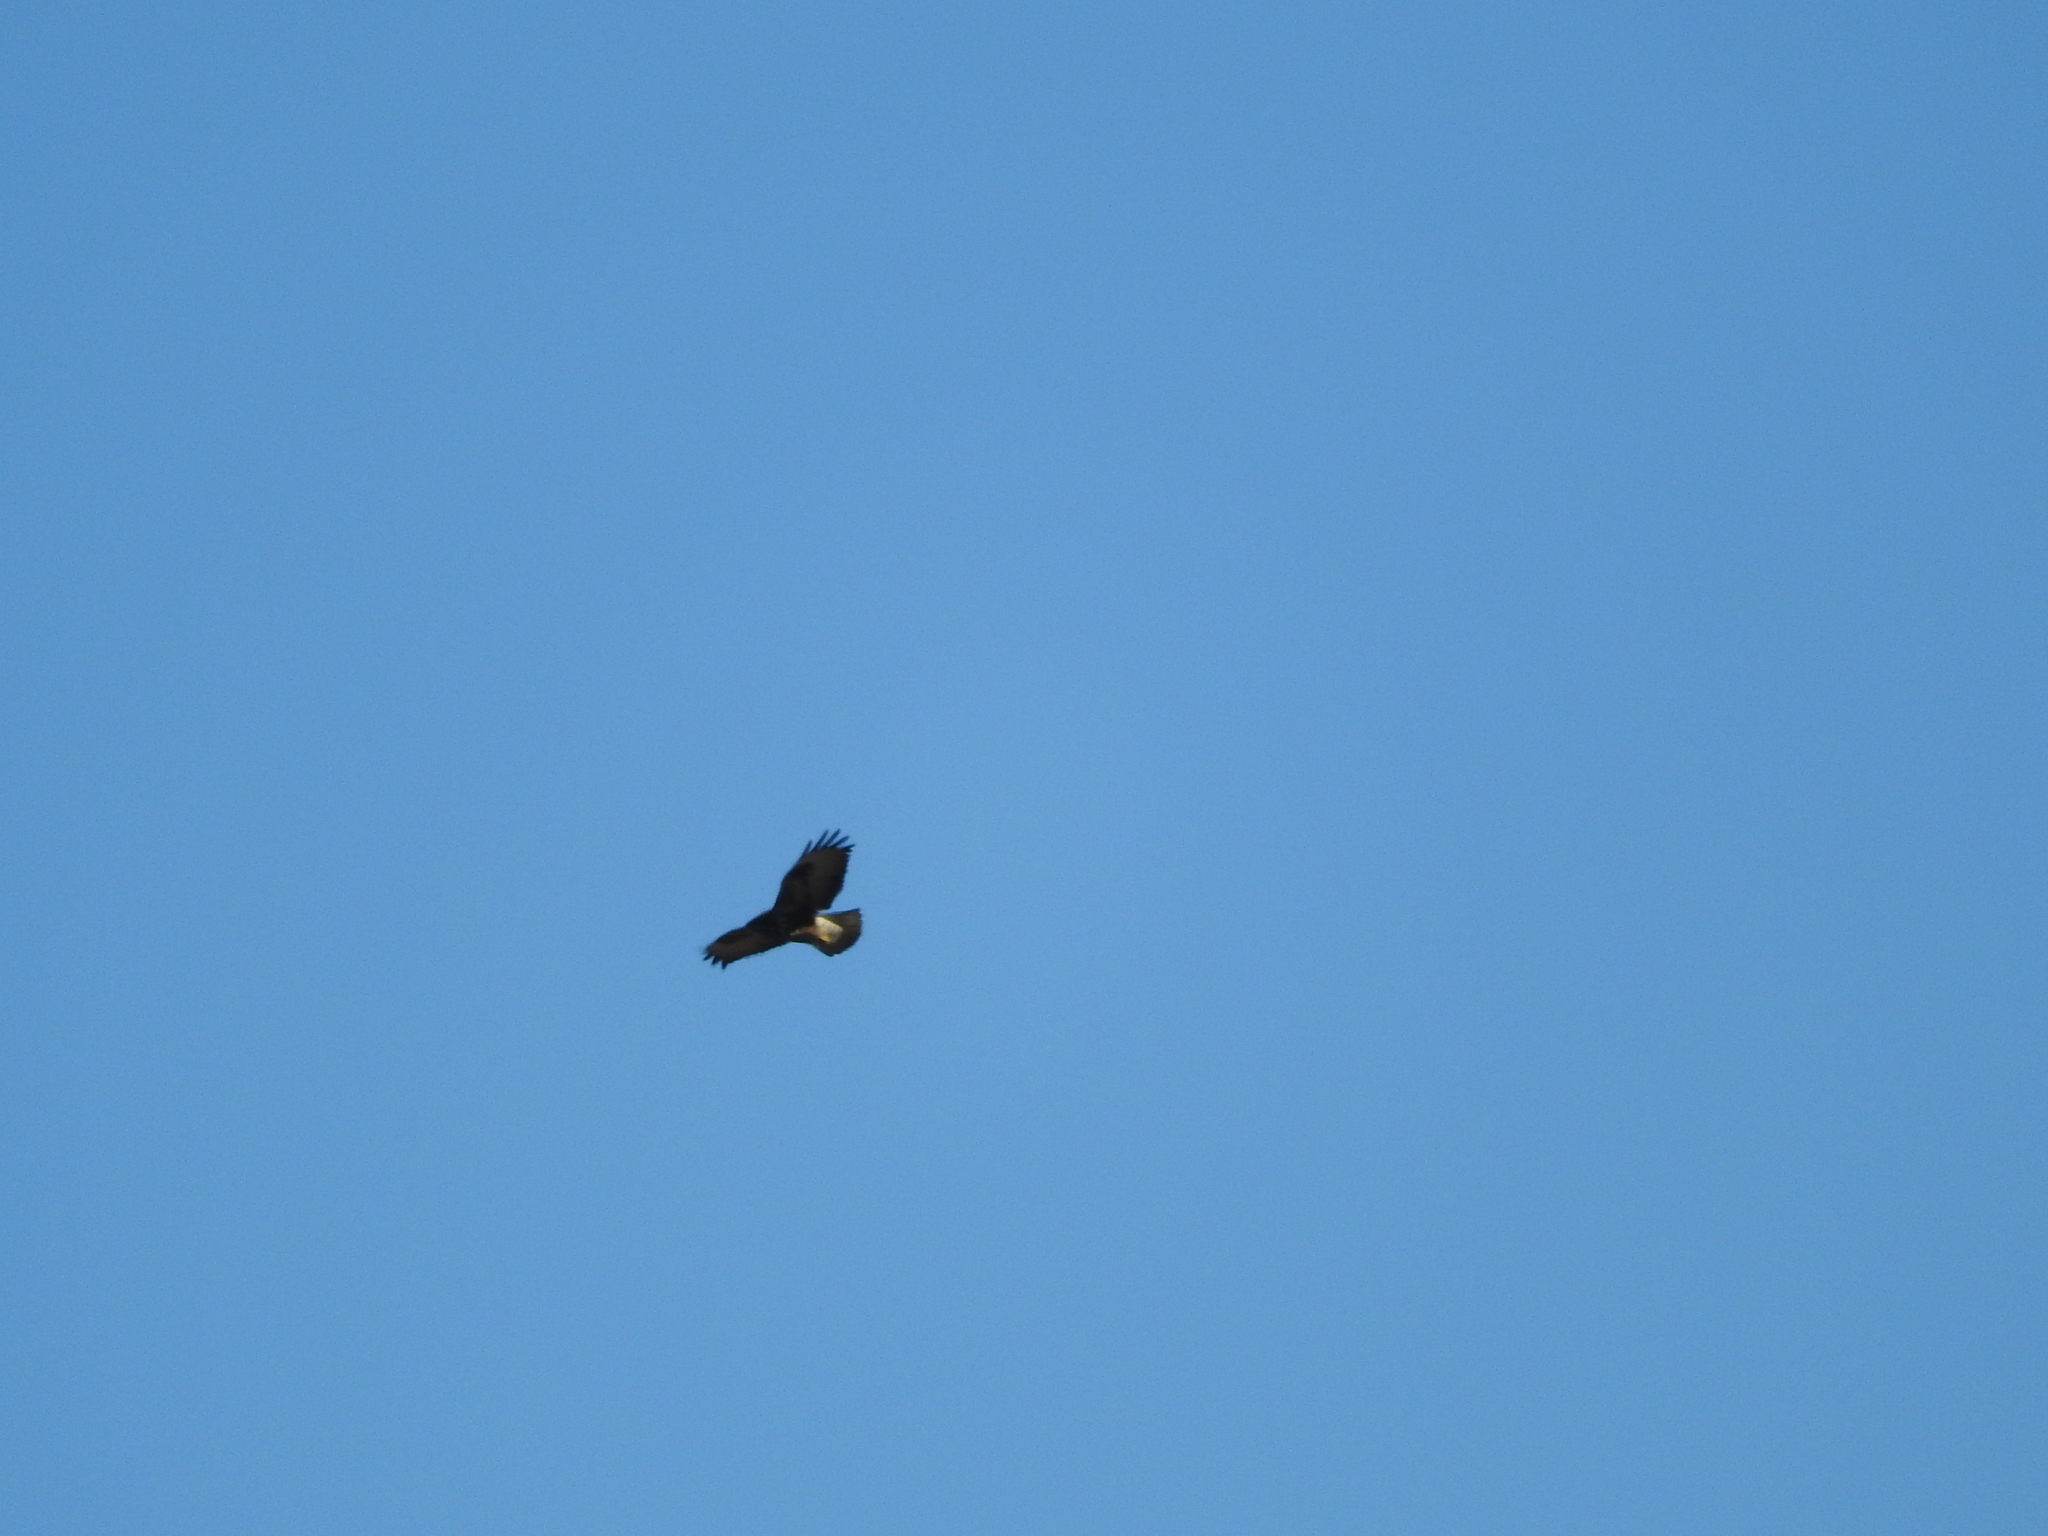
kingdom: Animalia
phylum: Chordata
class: Aves
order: Accipitriformes
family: Accipitridae
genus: Buteo
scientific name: Buteo buteo
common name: Common buzzard
